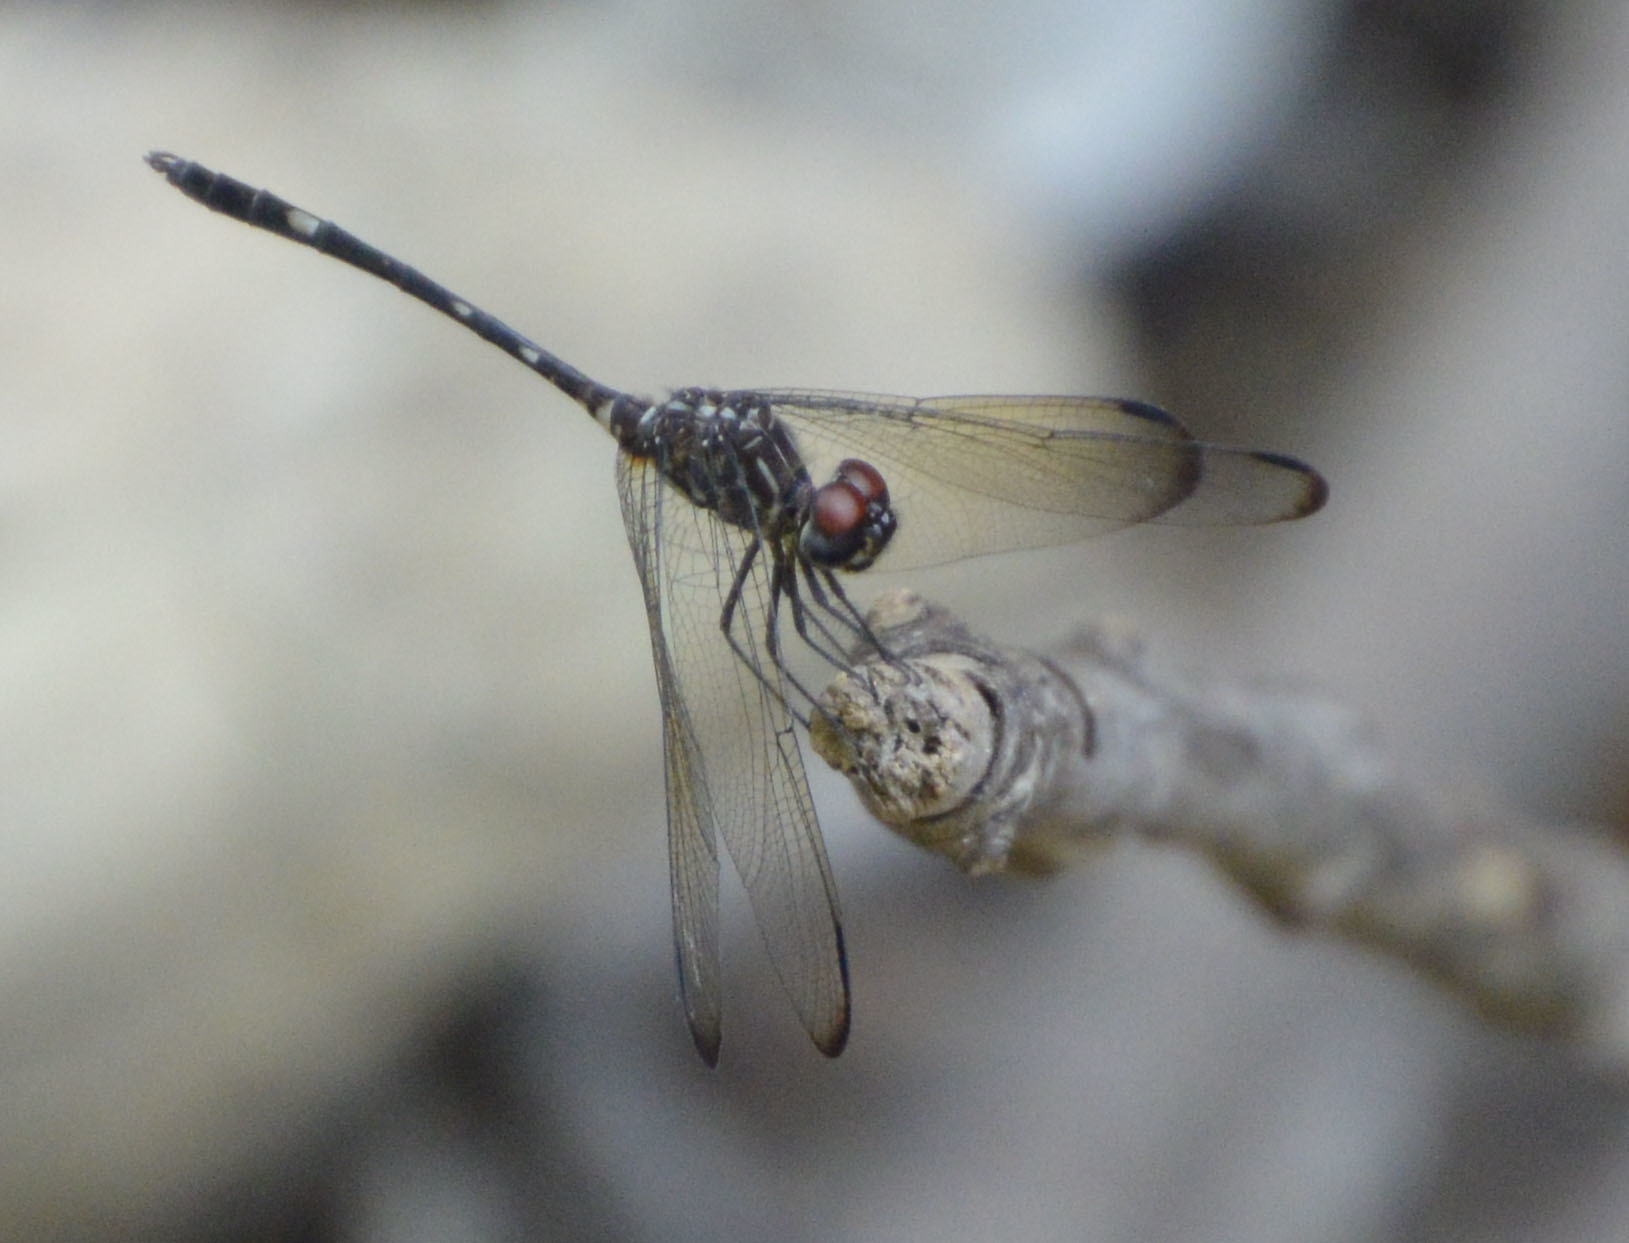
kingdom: Animalia
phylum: Arthropoda
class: Insecta
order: Odonata
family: Libellulidae
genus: Dythemis
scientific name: Dythemis velox
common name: Swift setwing
